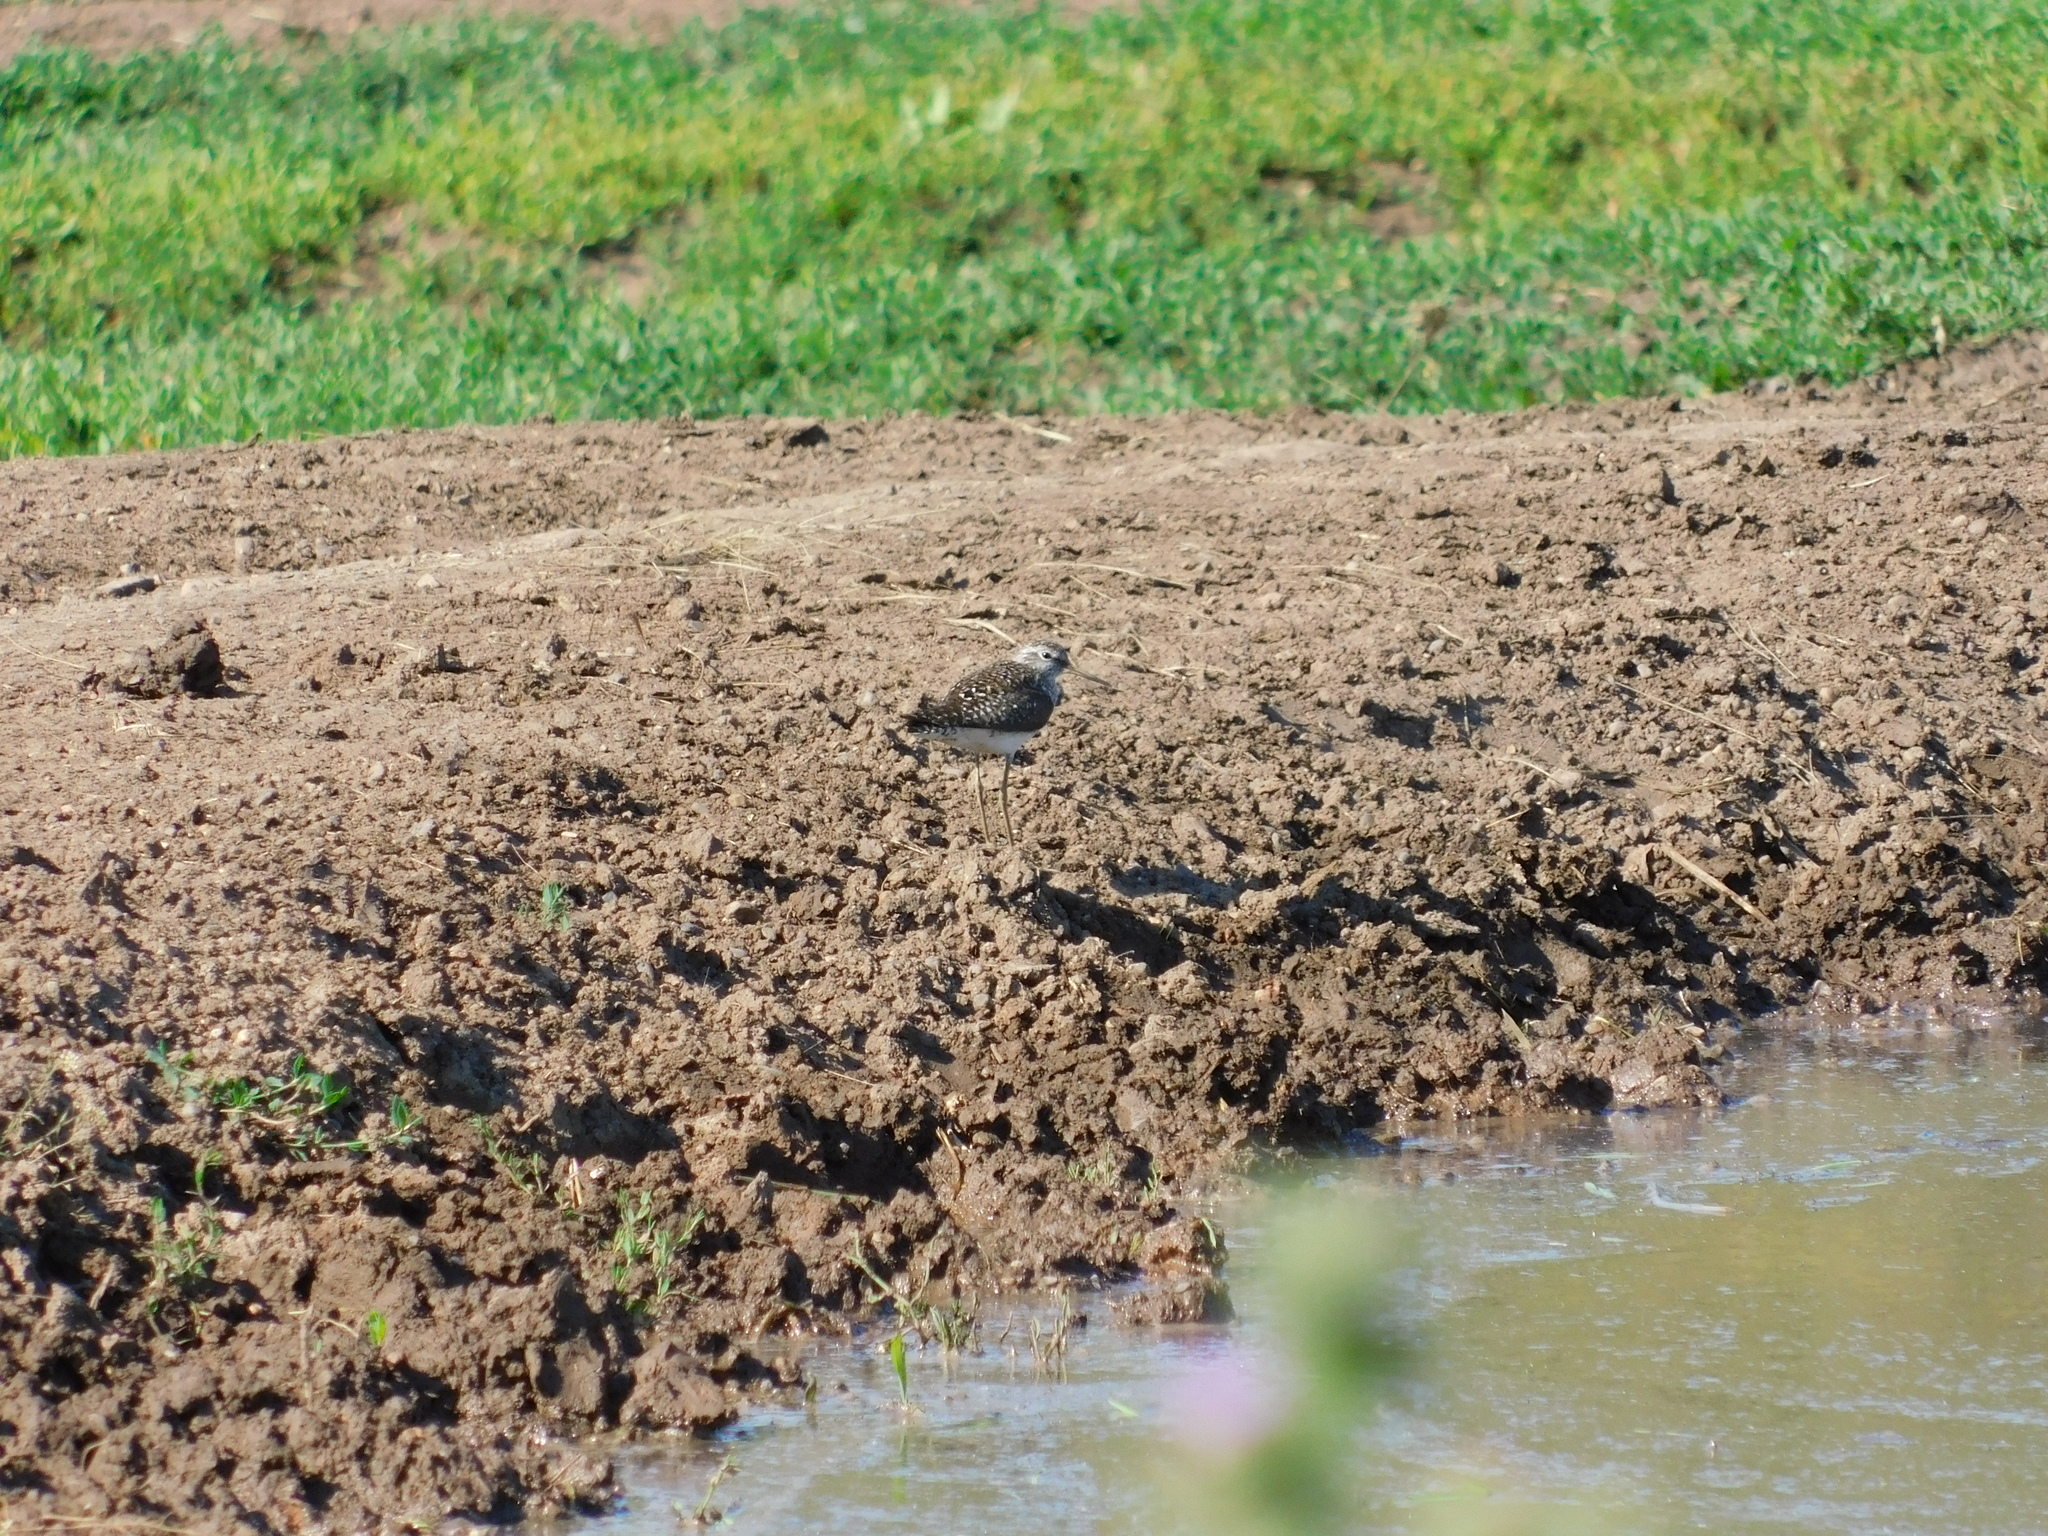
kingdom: Animalia
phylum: Chordata
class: Aves
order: Charadriiformes
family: Scolopacidae
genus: Tringa
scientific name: Tringa glareola
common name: Wood sandpiper
